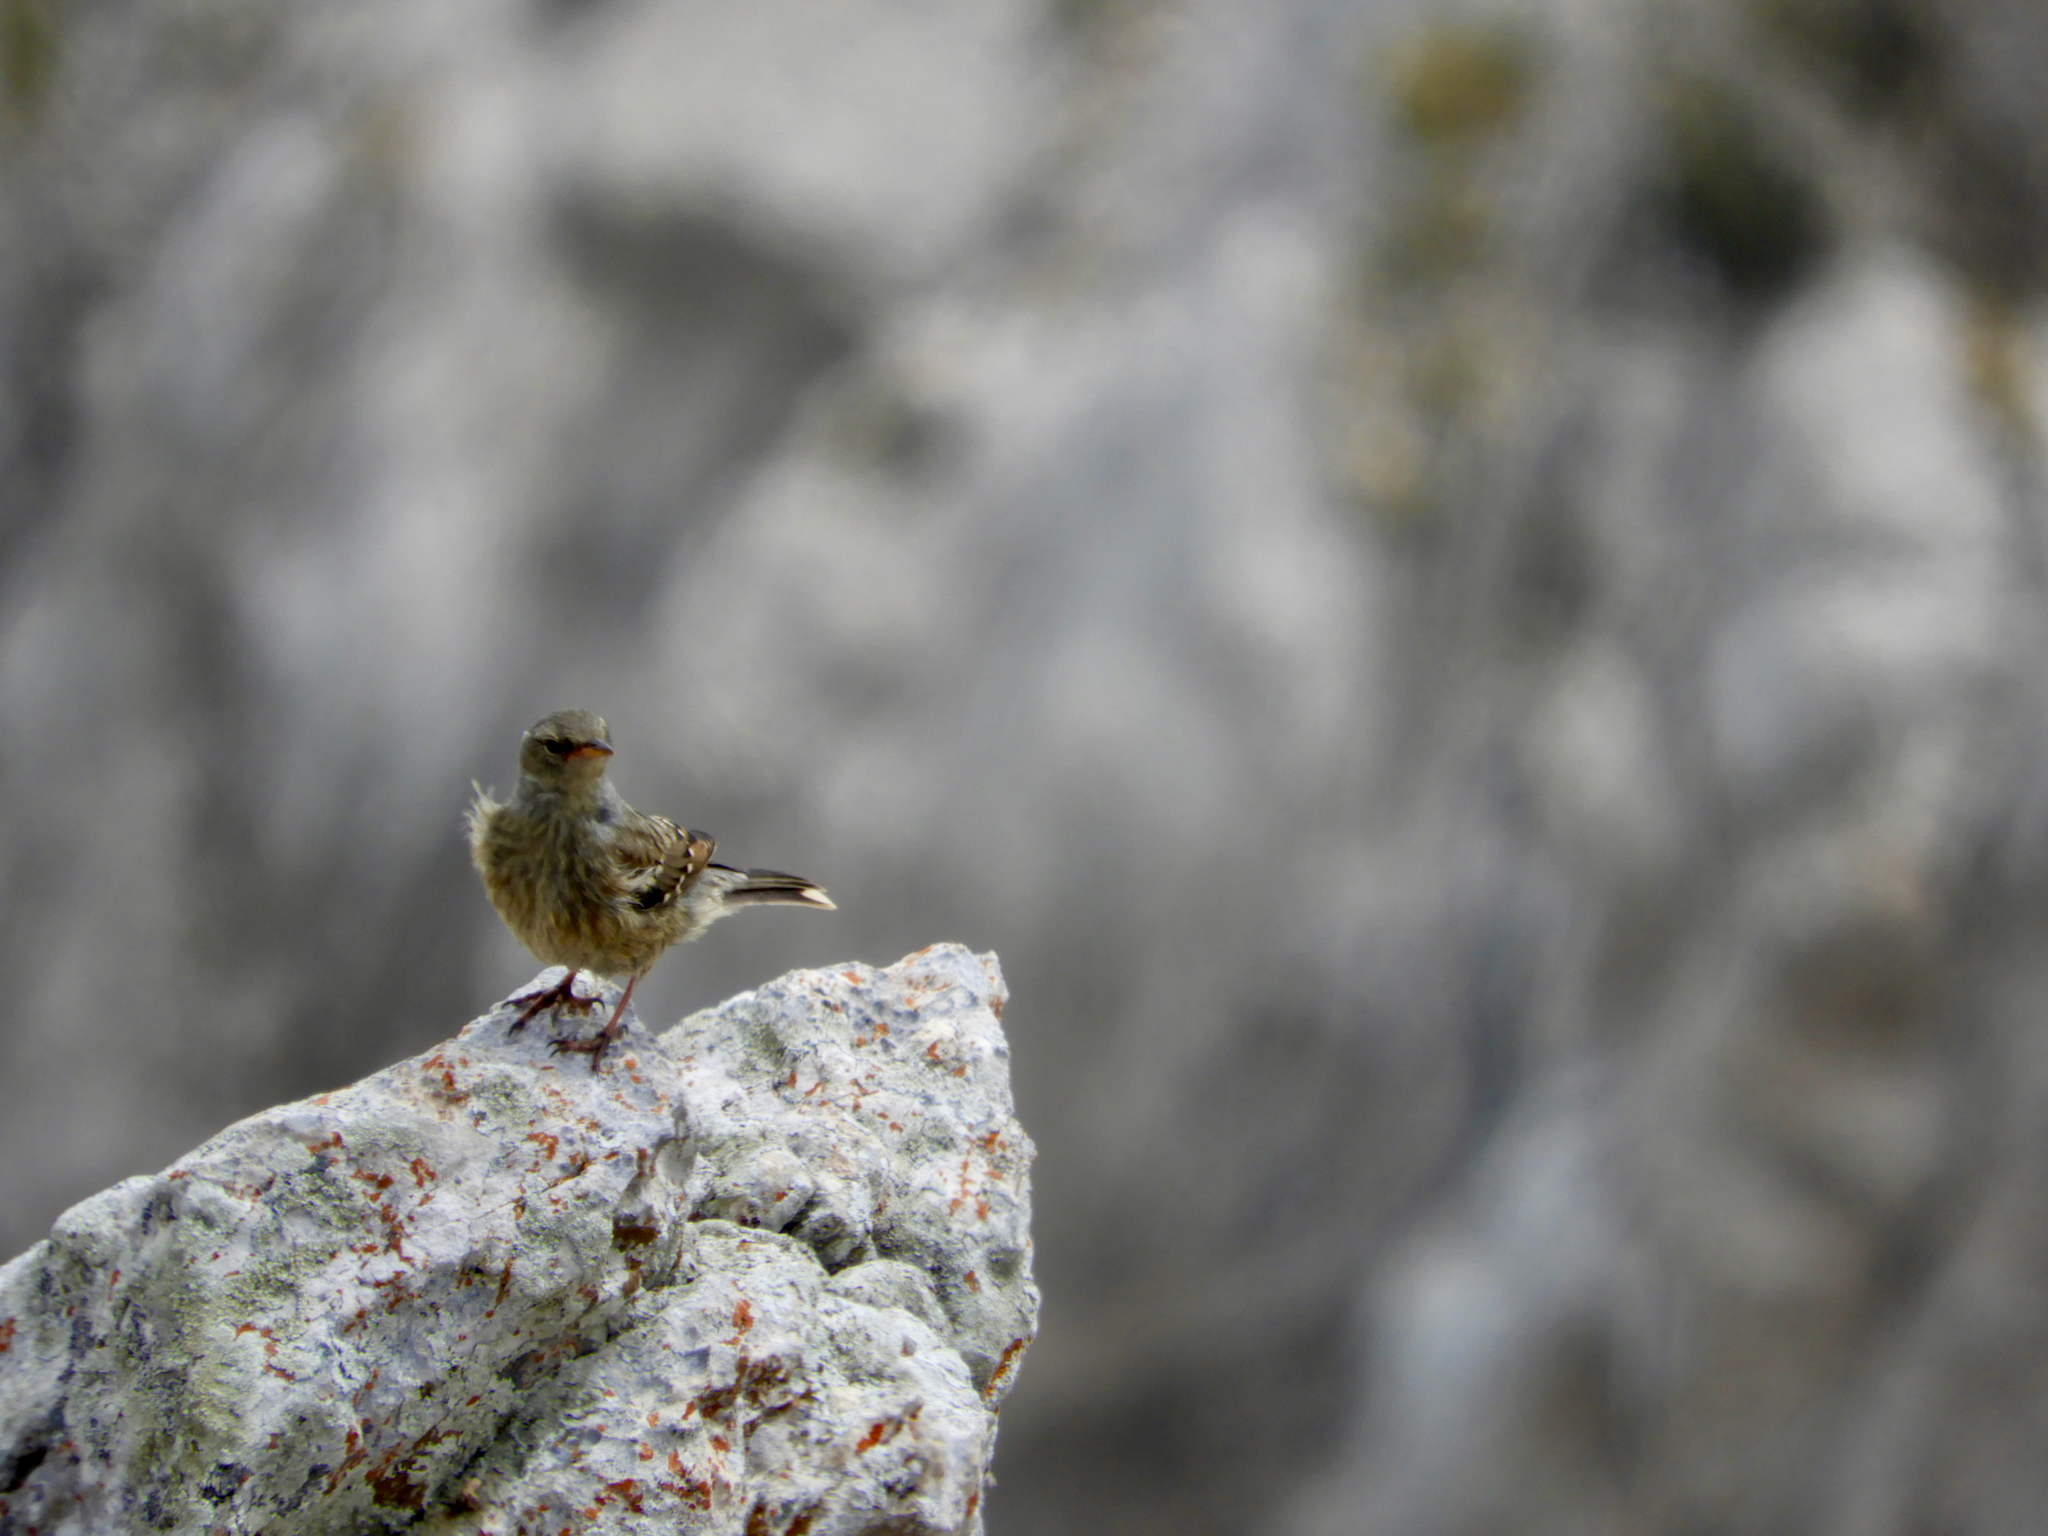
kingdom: Animalia
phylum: Chordata
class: Aves
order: Passeriformes
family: Prunellidae
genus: Prunella
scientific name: Prunella collaris
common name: Alpine accentor
